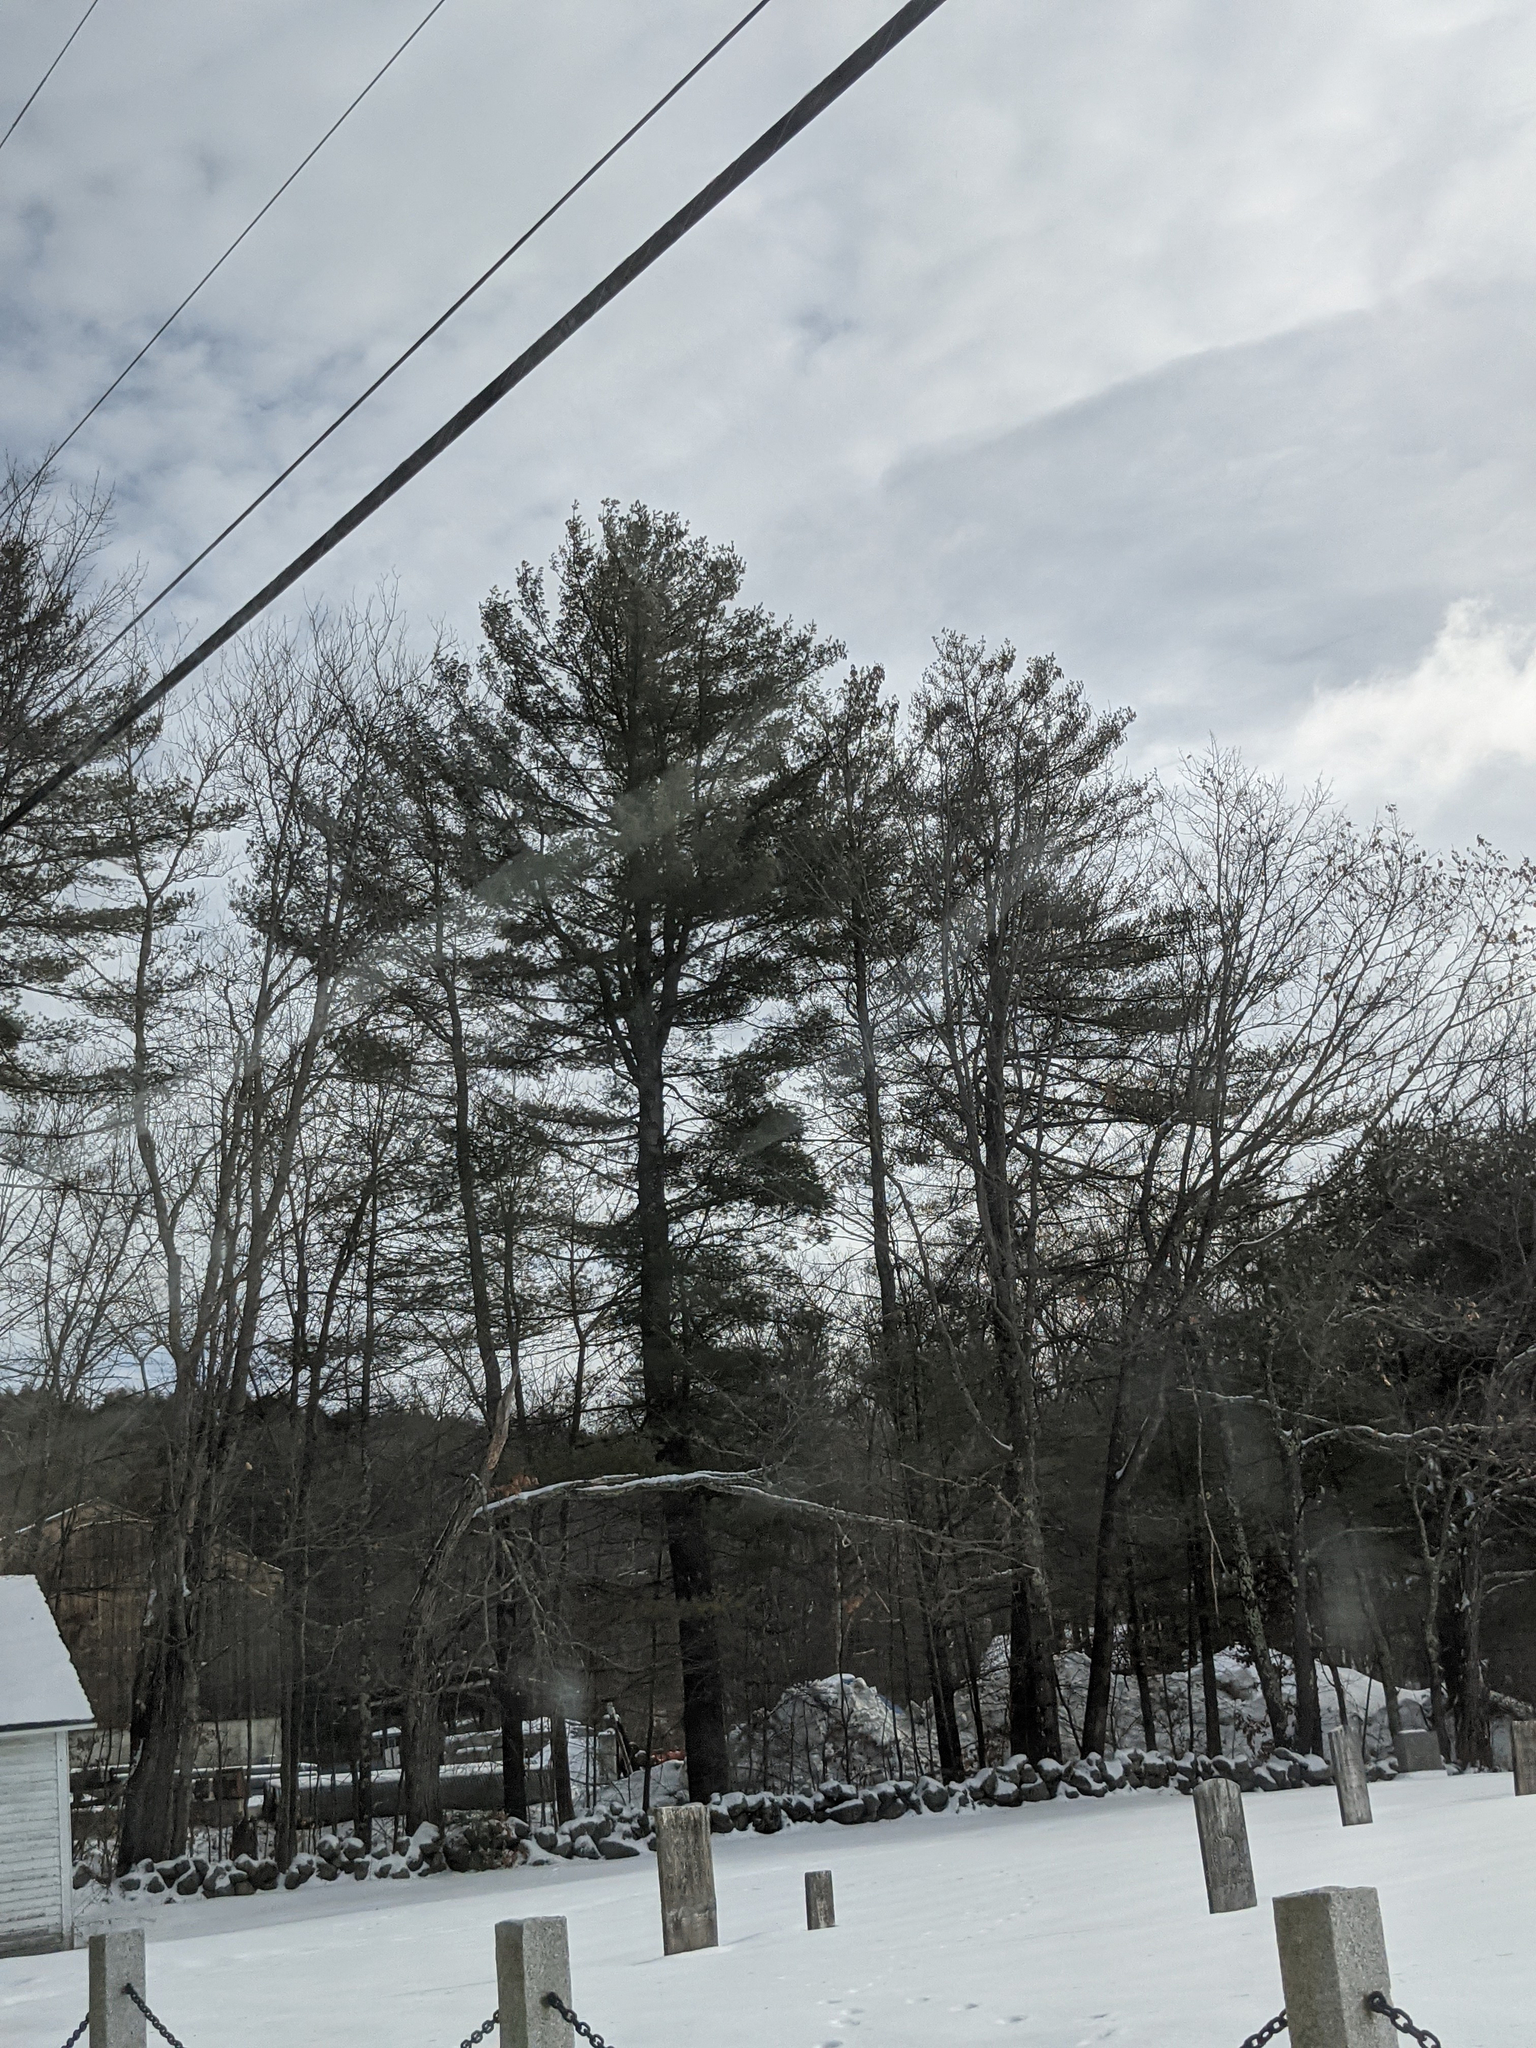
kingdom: Plantae
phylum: Tracheophyta
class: Pinopsida
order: Pinales
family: Pinaceae
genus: Pinus
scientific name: Pinus strobus
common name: Weymouth pine
